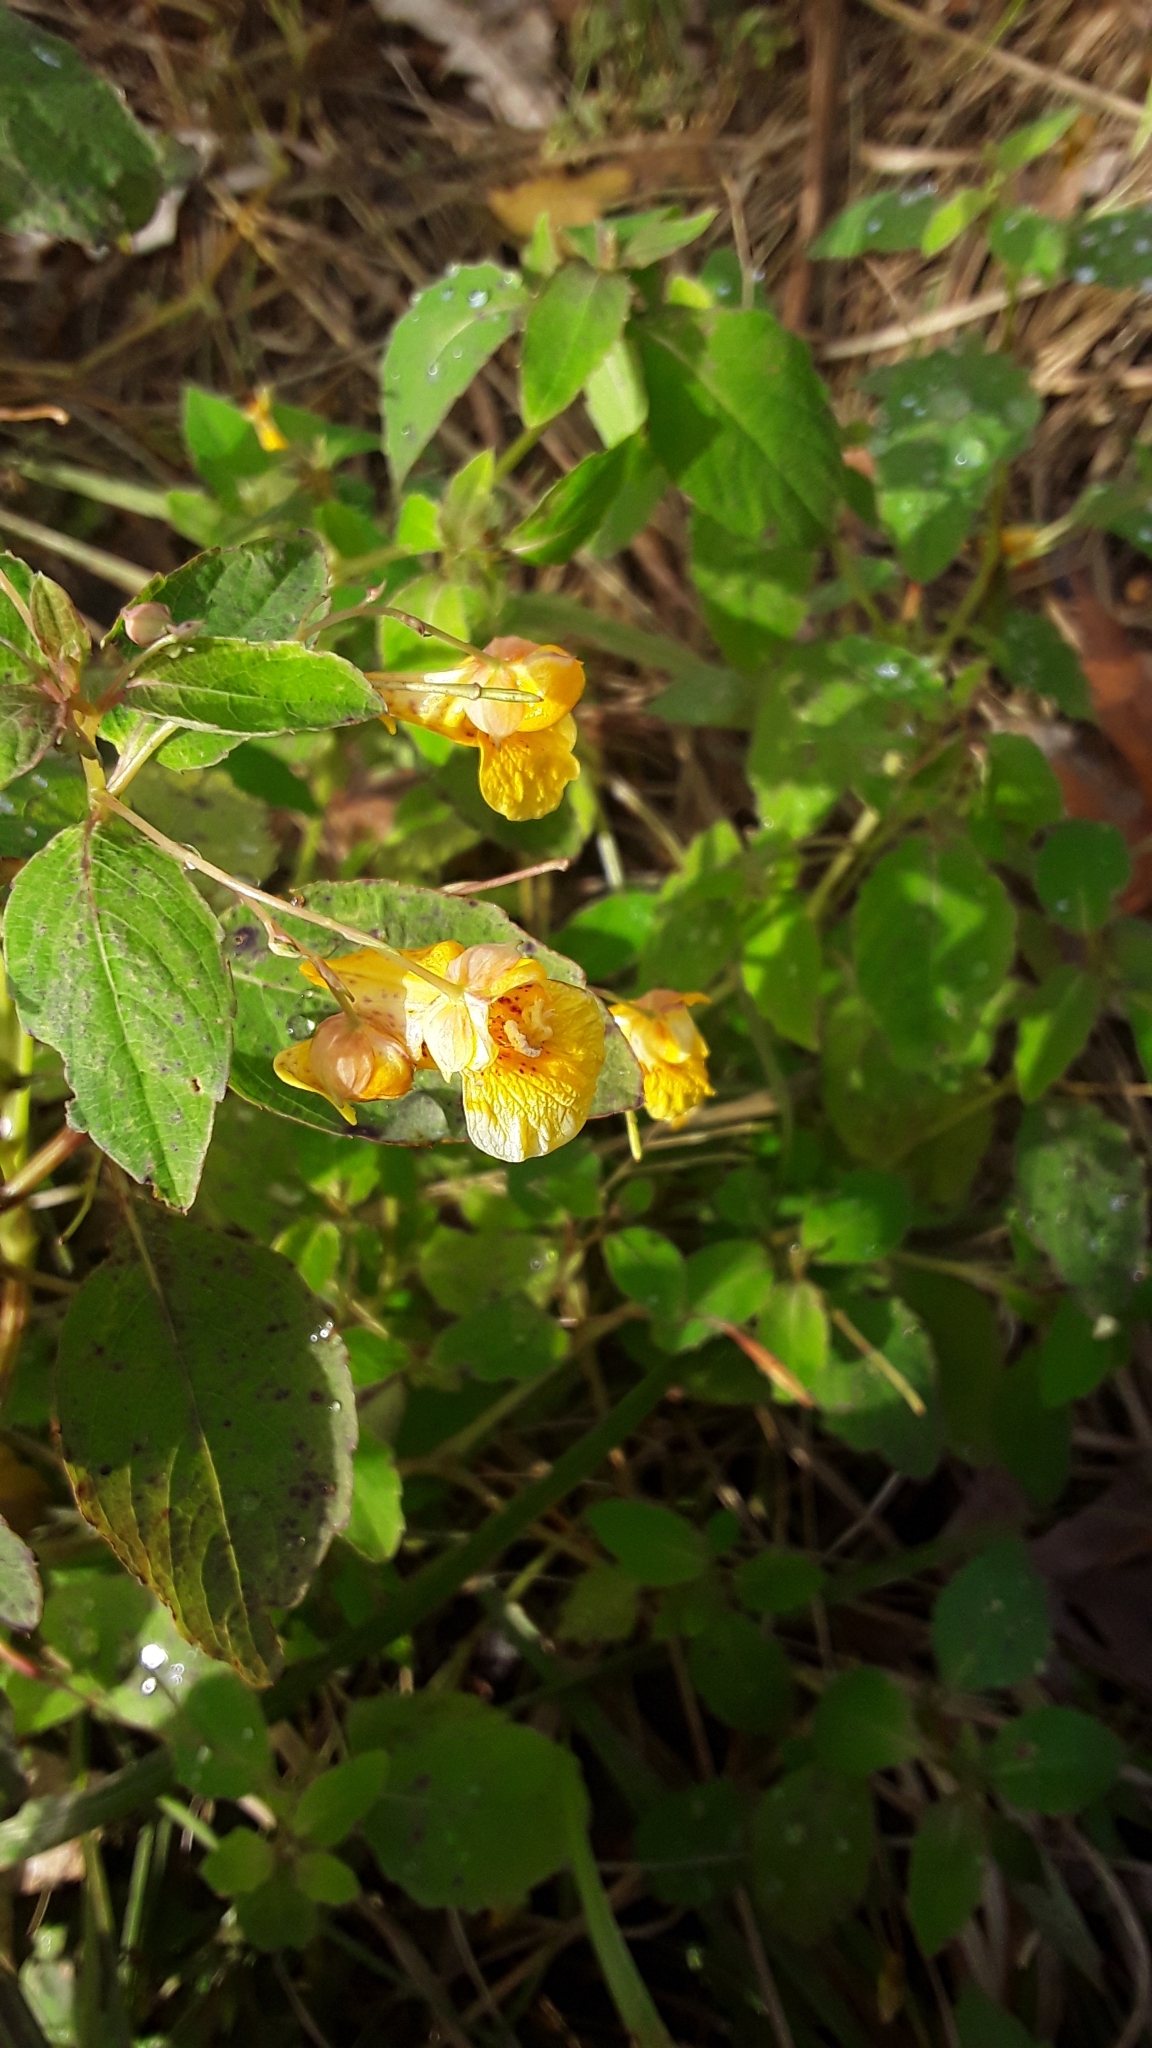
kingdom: Plantae
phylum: Tracheophyta
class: Magnoliopsida
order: Ericales
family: Balsaminaceae
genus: Impatiens
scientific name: Impatiens capensis
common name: Orange balsam
